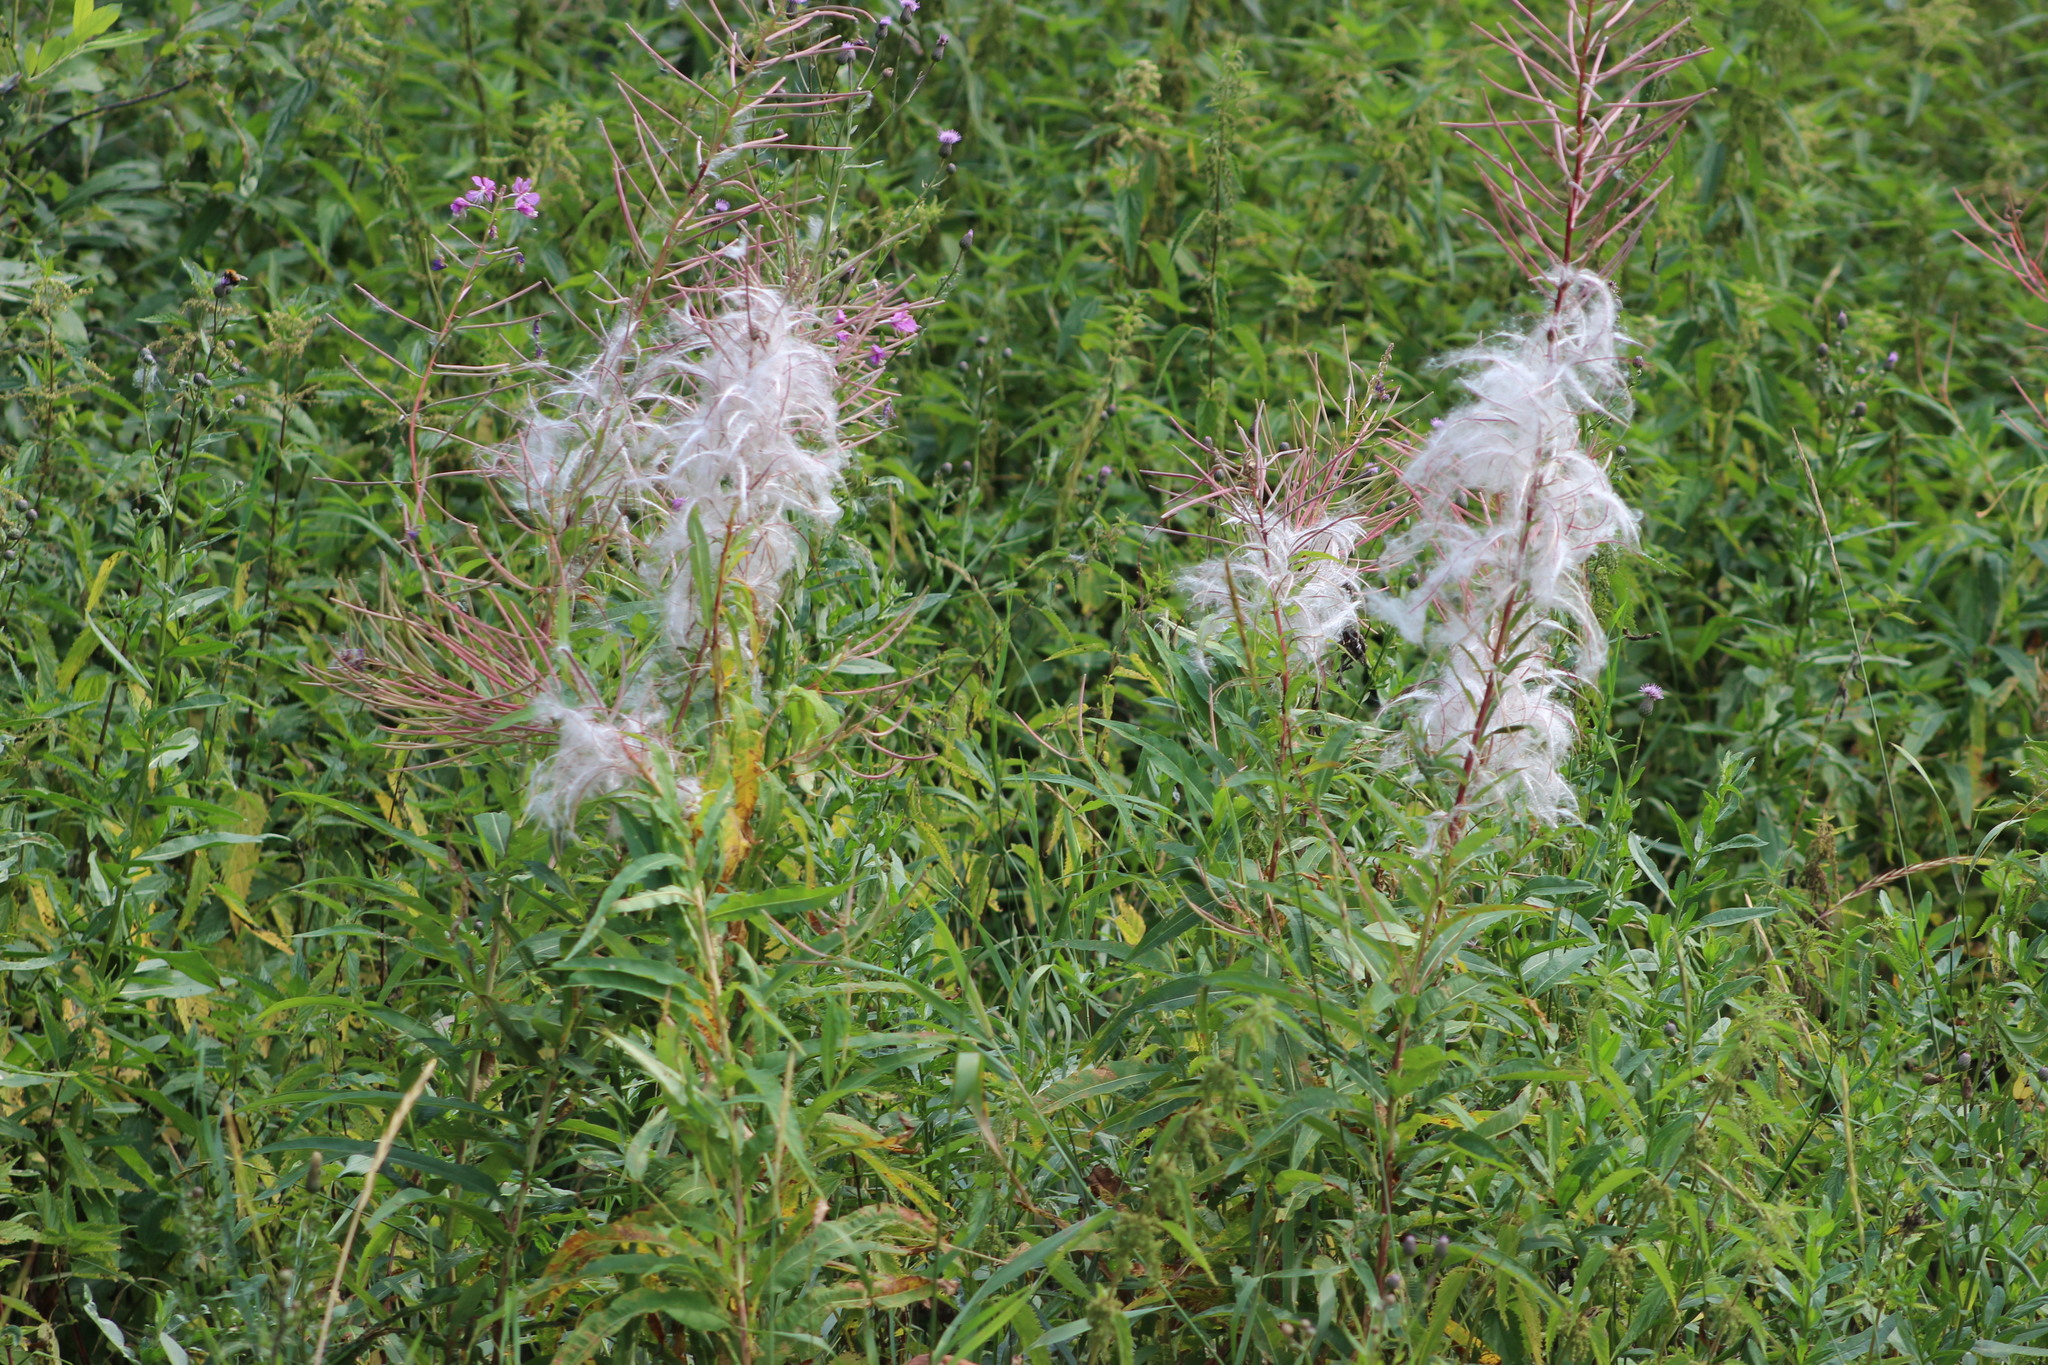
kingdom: Plantae
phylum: Tracheophyta
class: Magnoliopsida
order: Myrtales
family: Onagraceae
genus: Chamaenerion
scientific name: Chamaenerion angustifolium
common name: Fireweed
